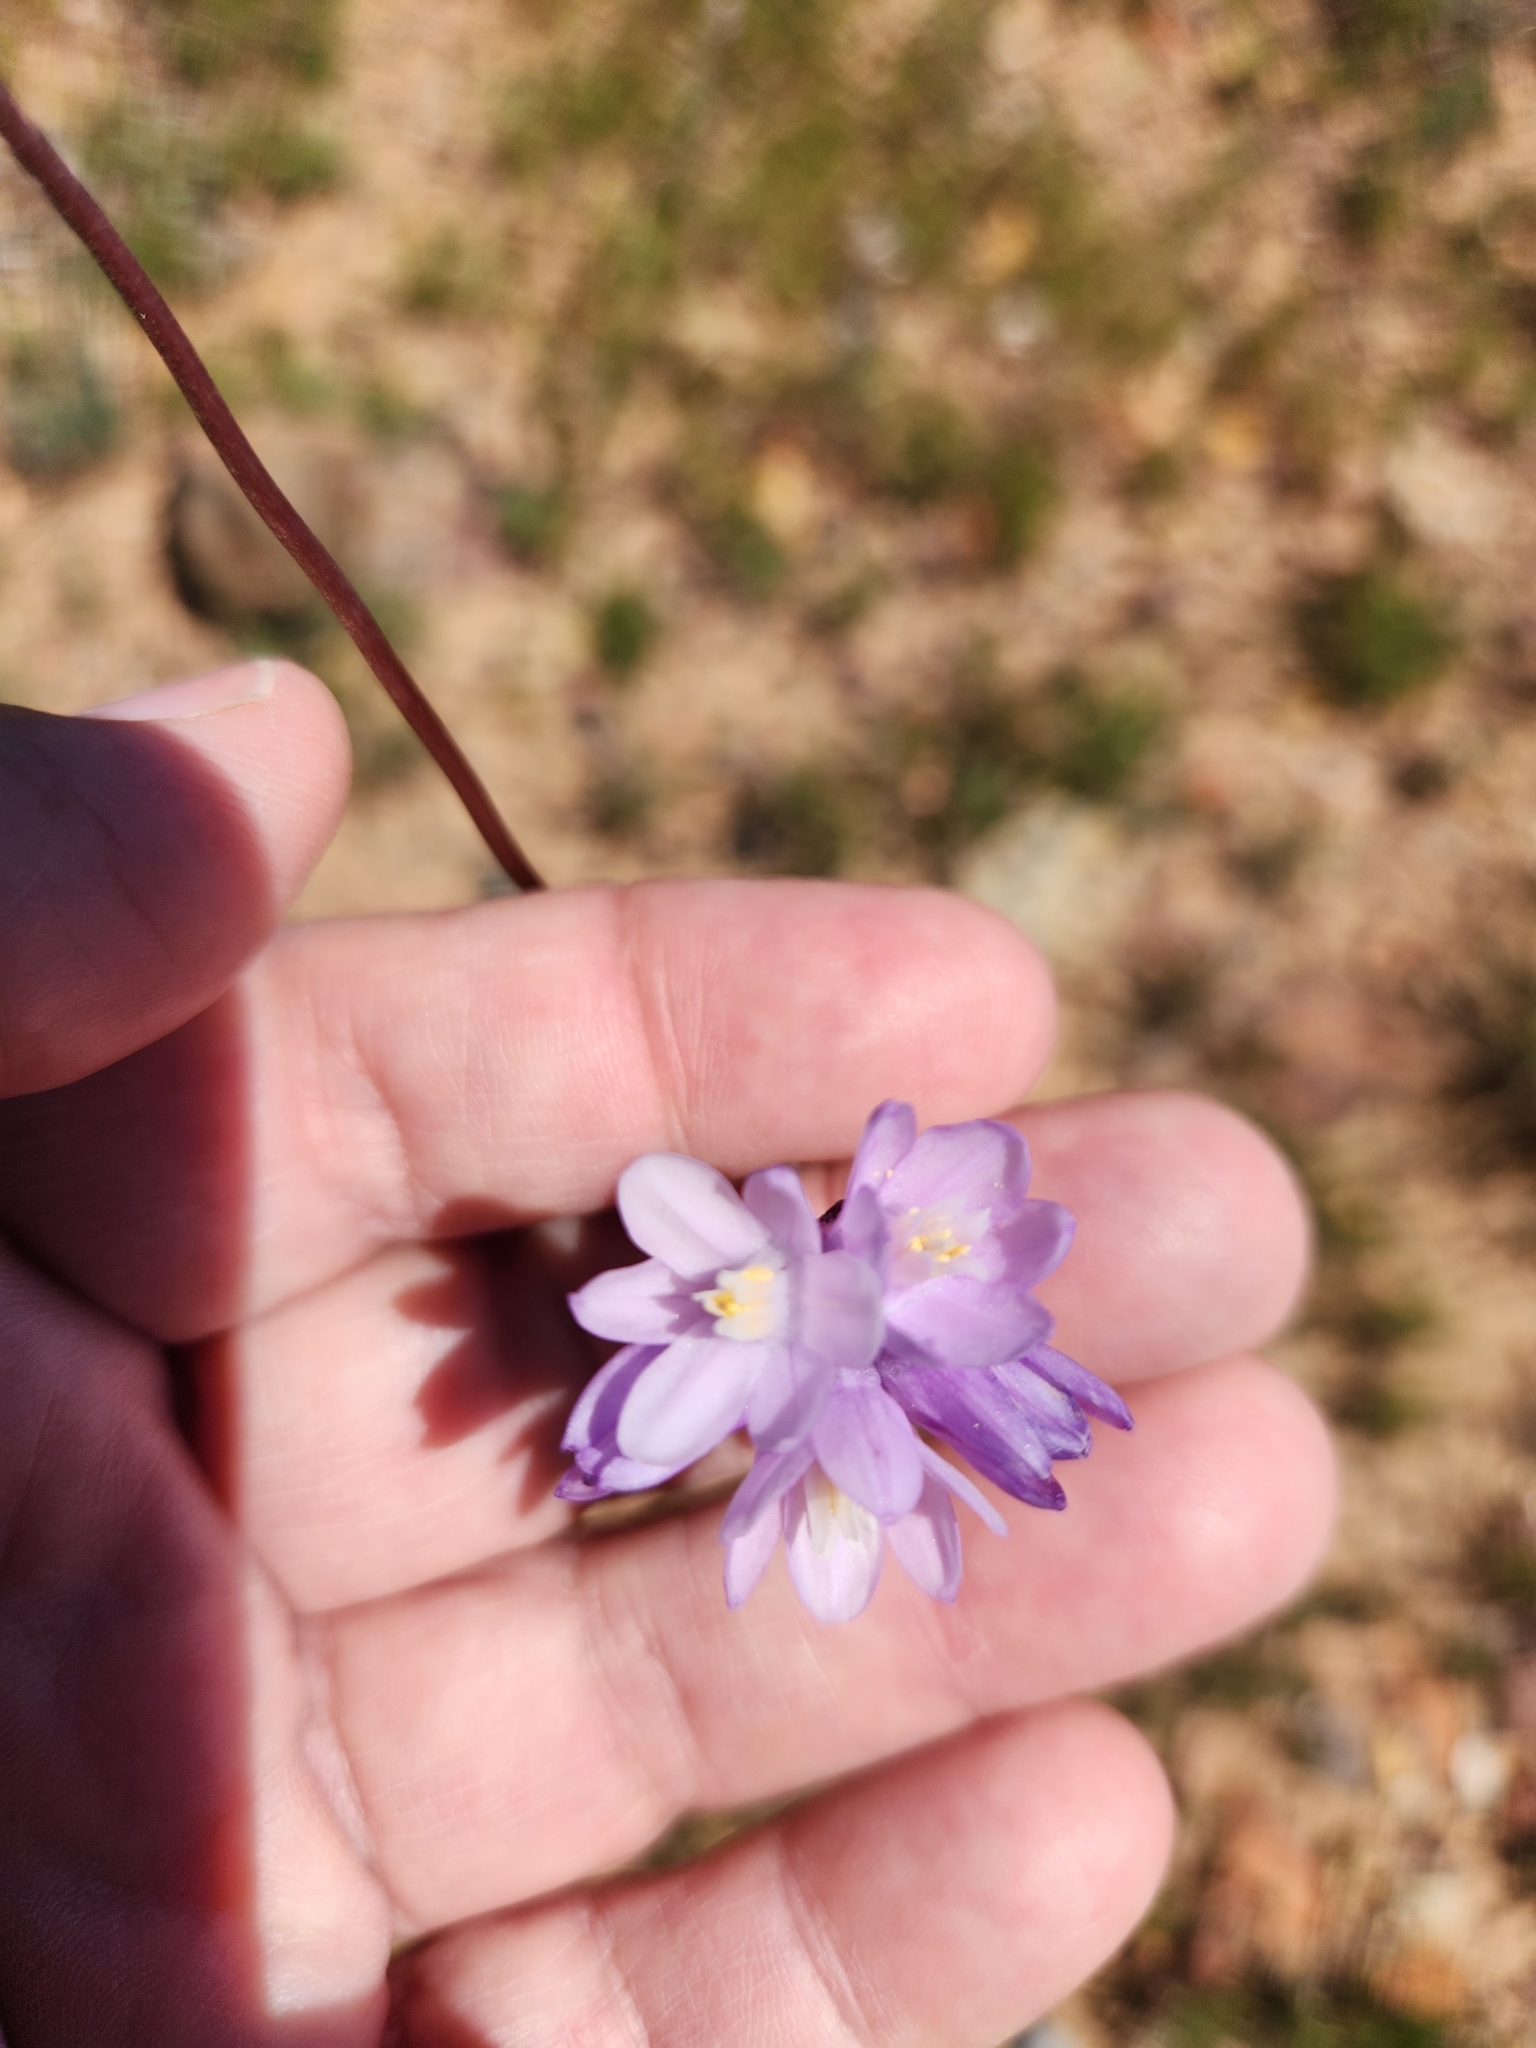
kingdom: Plantae
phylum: Tracheophyta
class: Liliopsida
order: Asparagales
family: Asparagaceae
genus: Dipterostemon
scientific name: Dipterostemon capitatus
